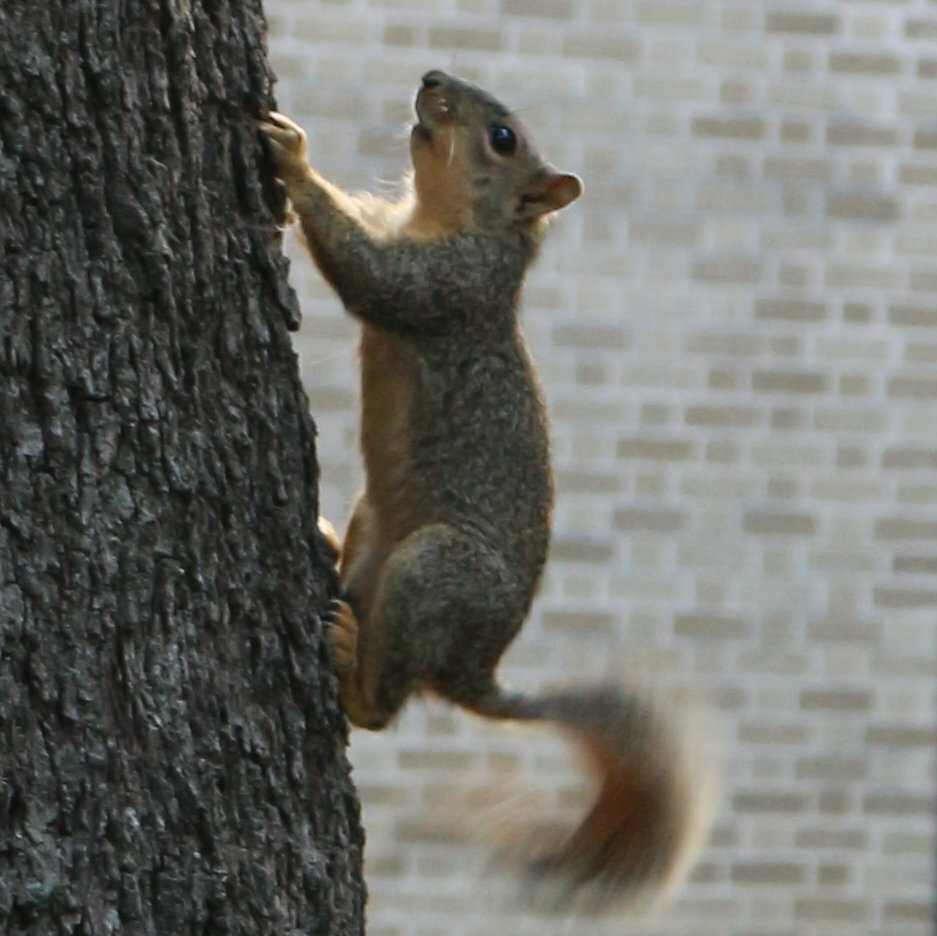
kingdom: Animalia
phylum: Chordata
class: Mammalia
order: Rodentia
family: Sciuridae
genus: Sciurus
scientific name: Sciurus niger
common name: Fox squirrel
